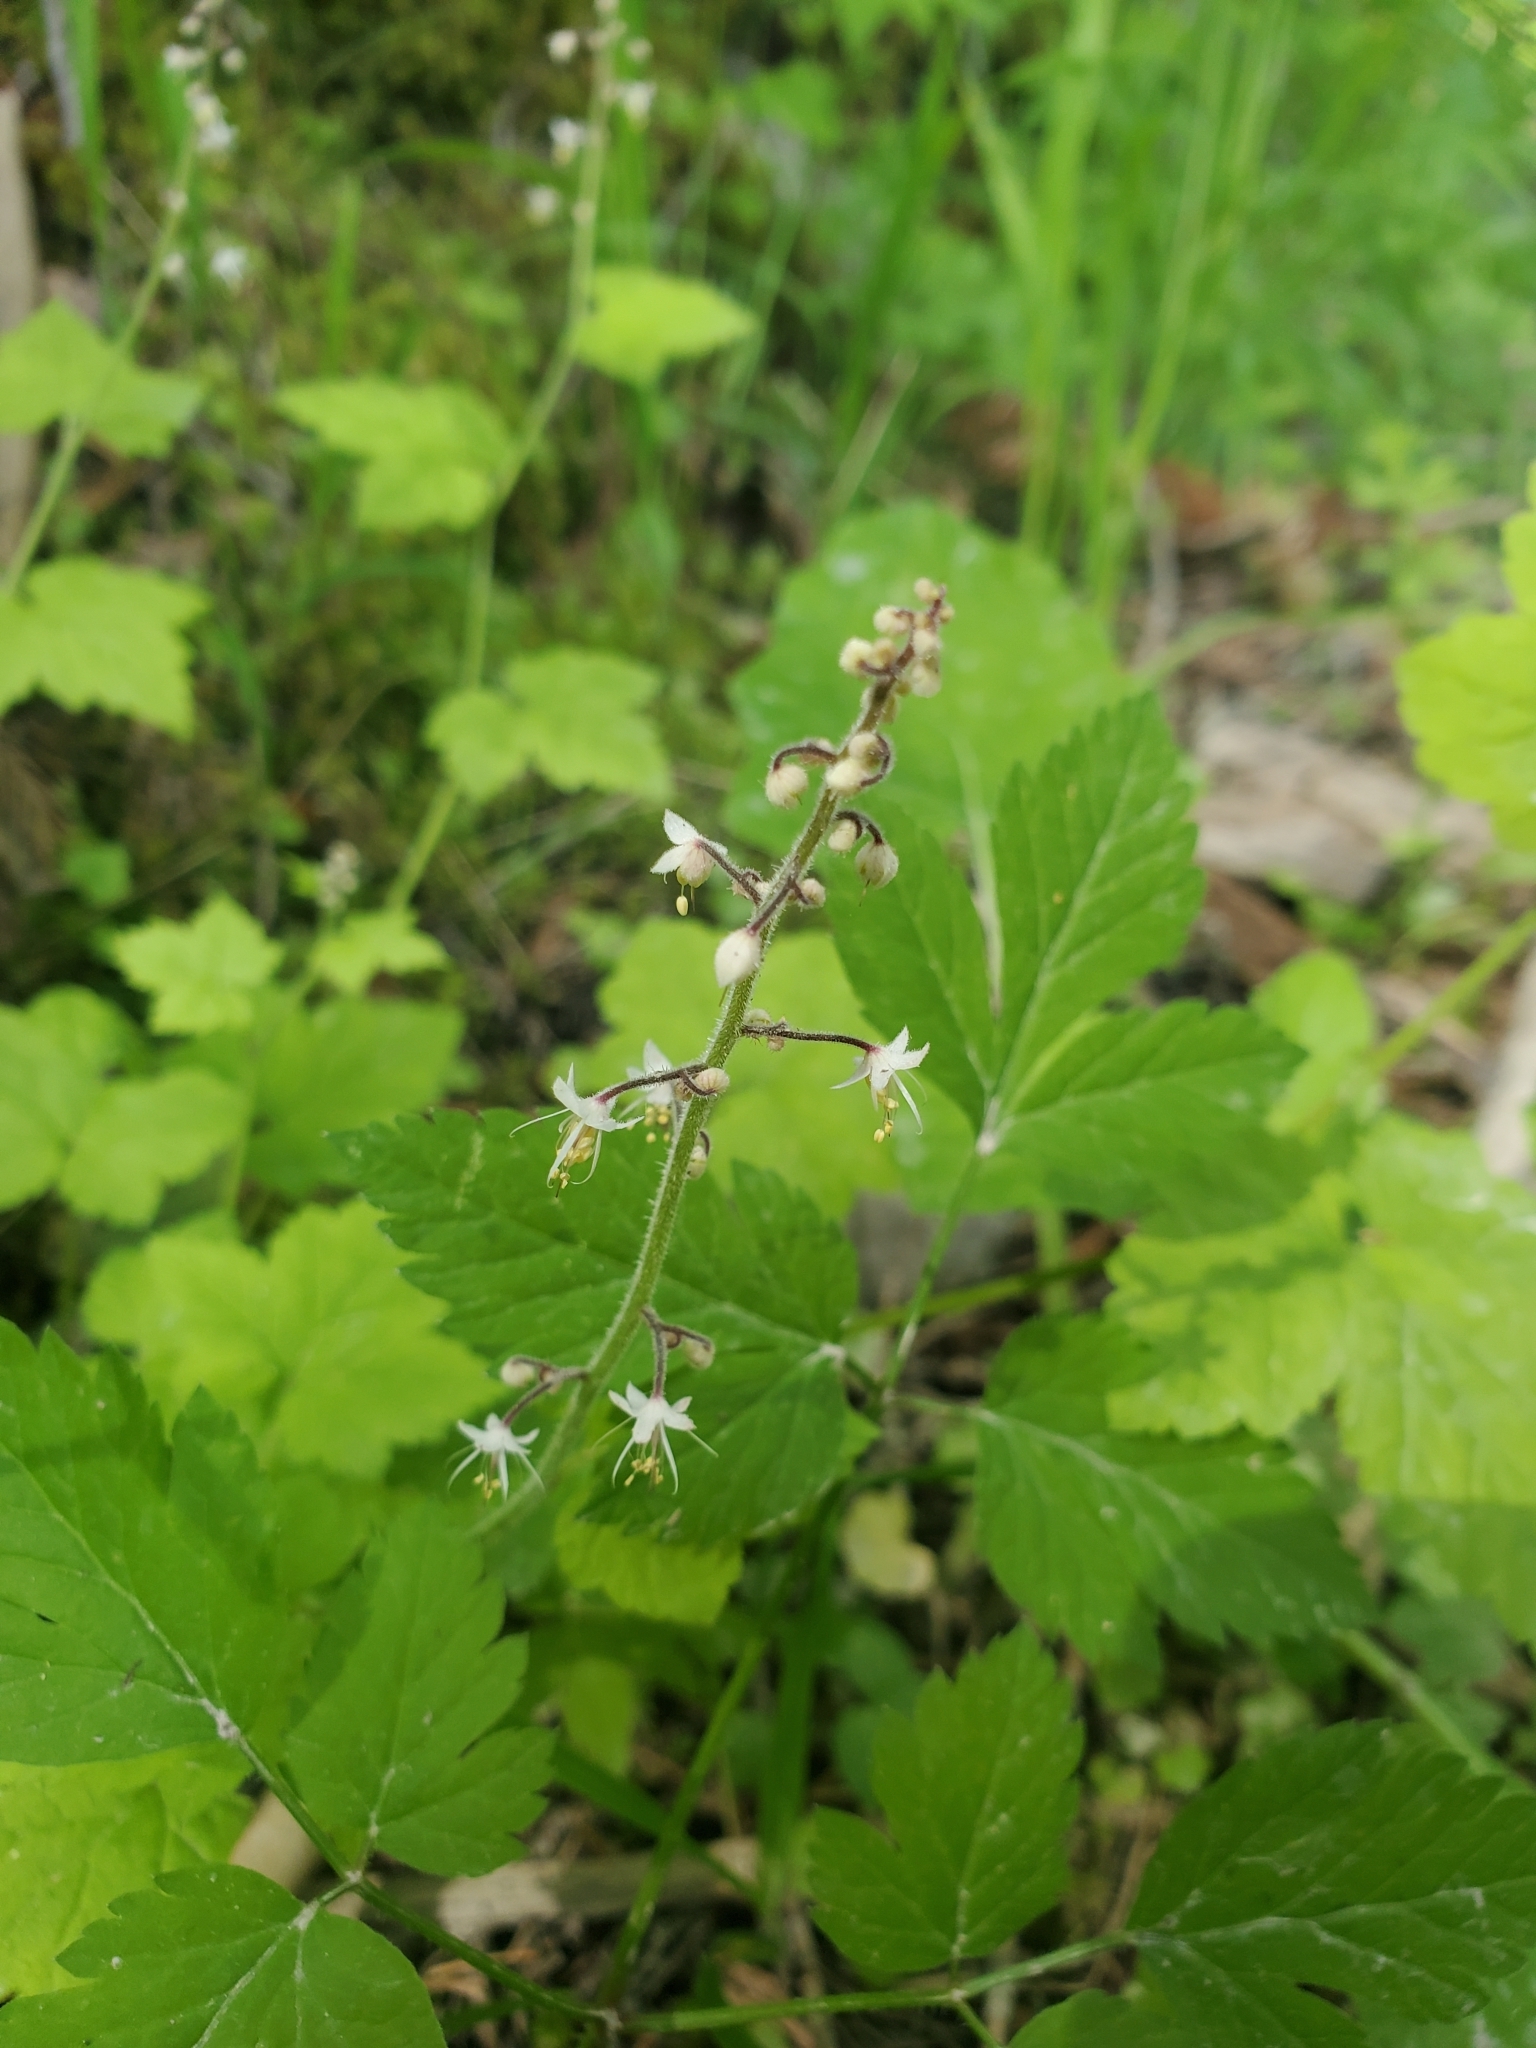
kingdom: Plantae
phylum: Tracheophyta
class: Magnoliopsida
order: Saxifragales
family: Saxifragaceae
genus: Tiarella
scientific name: Tiarella trifoliata
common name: Sugar-scoop
